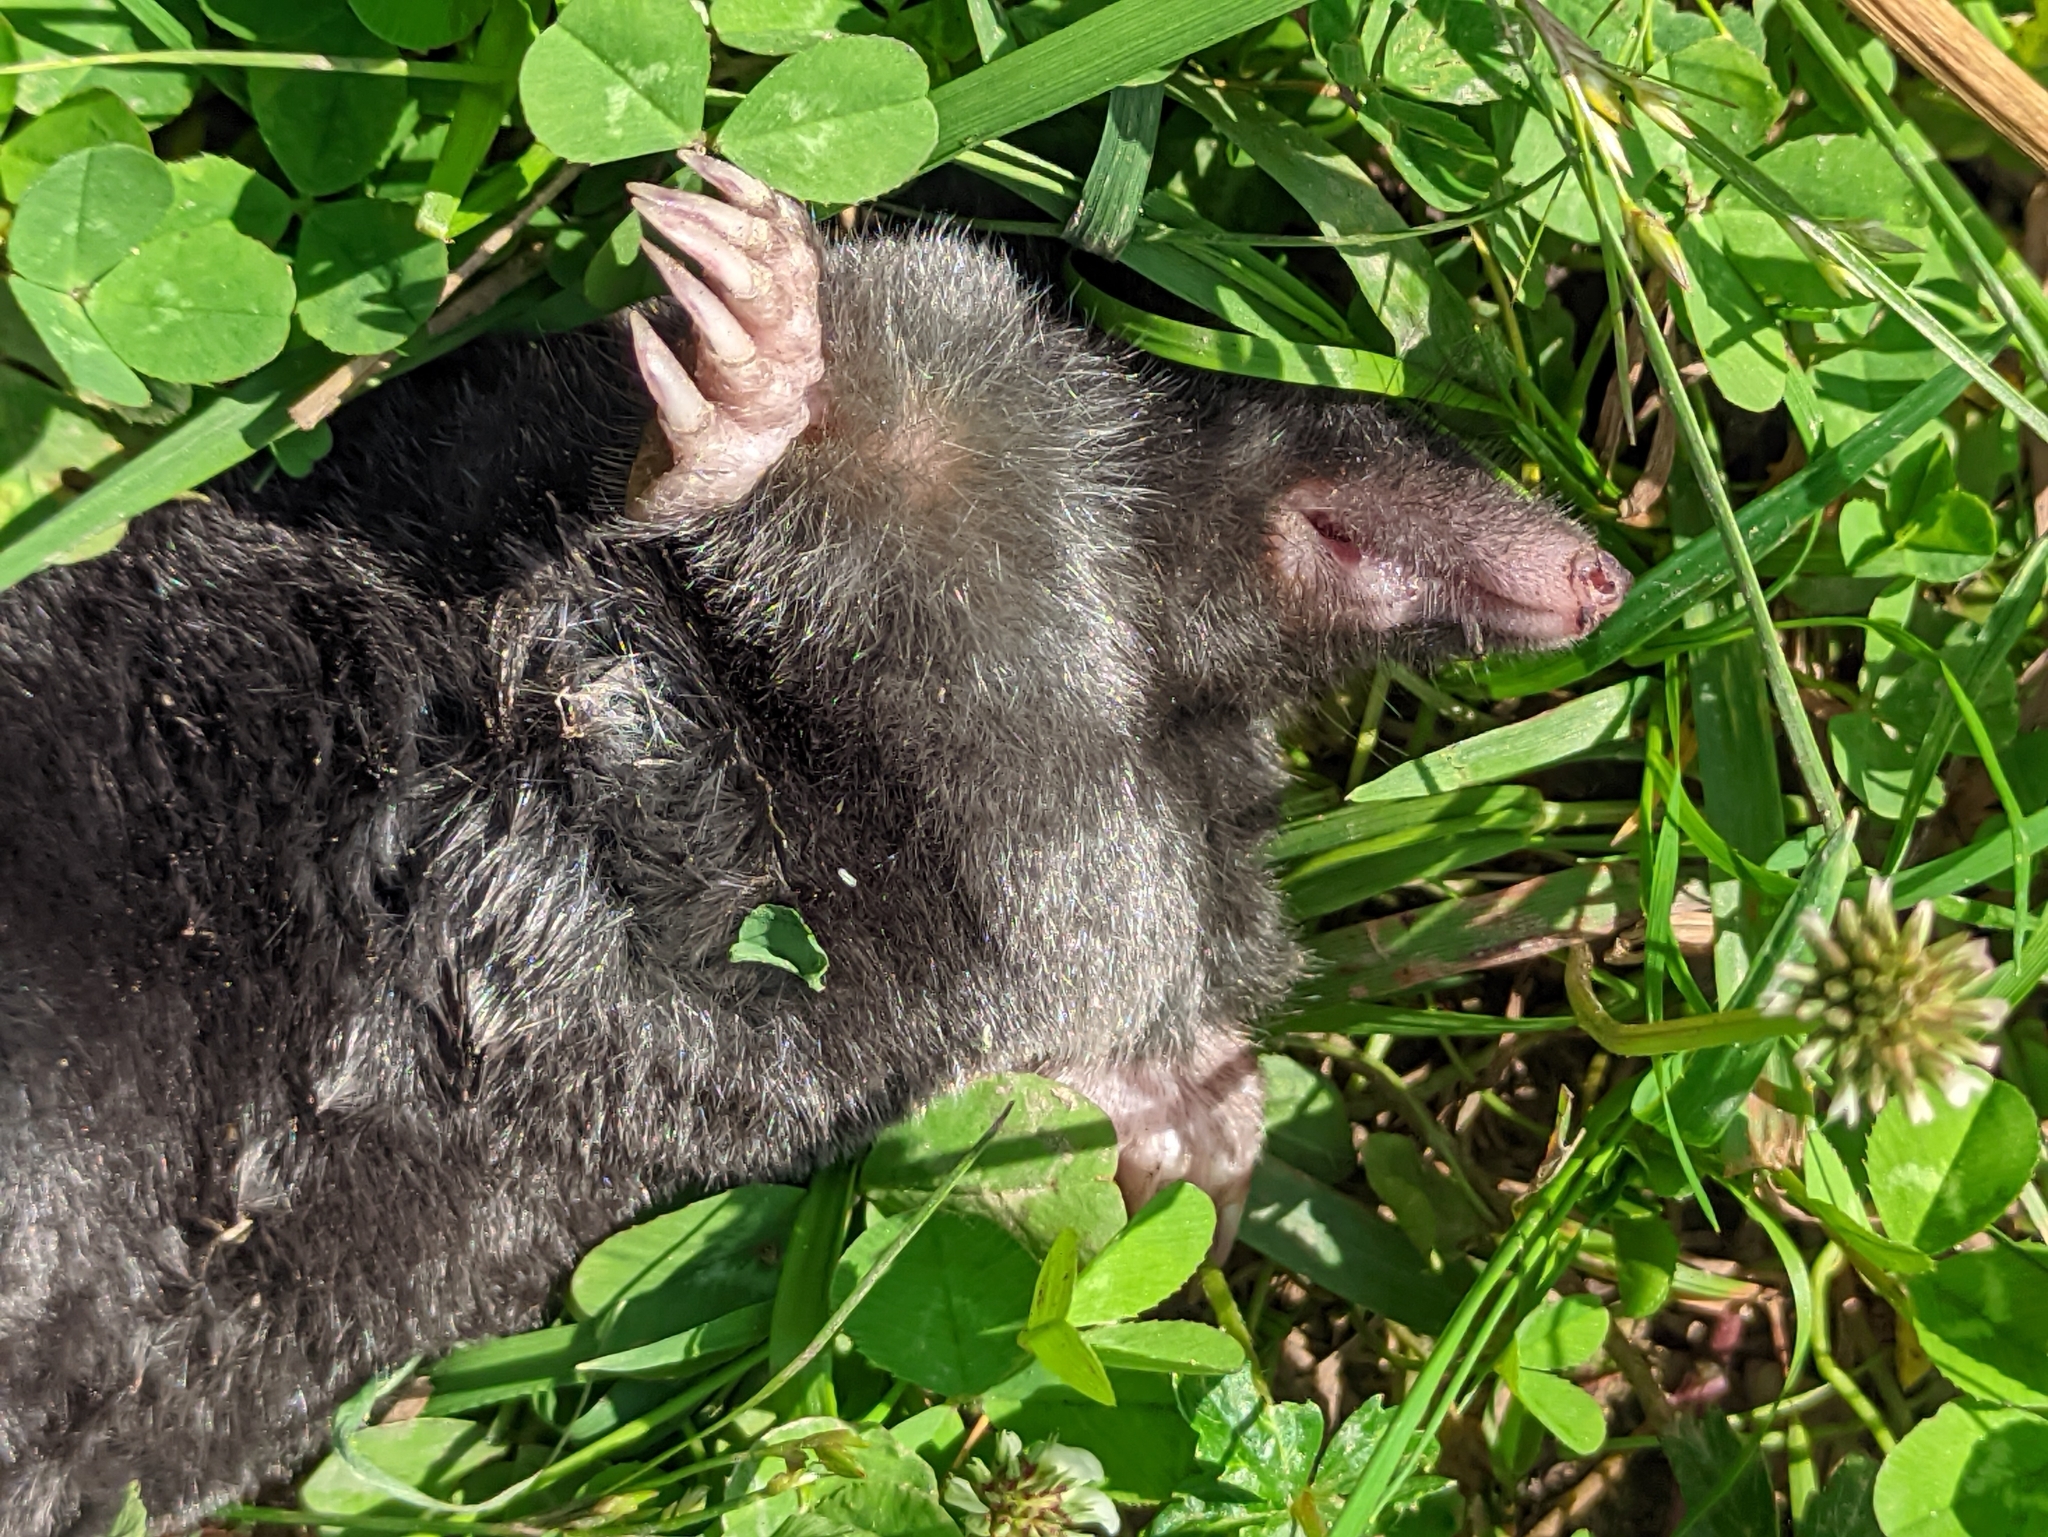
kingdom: Animalia
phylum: Chordata
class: Mammalia
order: Soricomorpha
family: Talpidae
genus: Talpa
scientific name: Talpa europaea
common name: European mole
